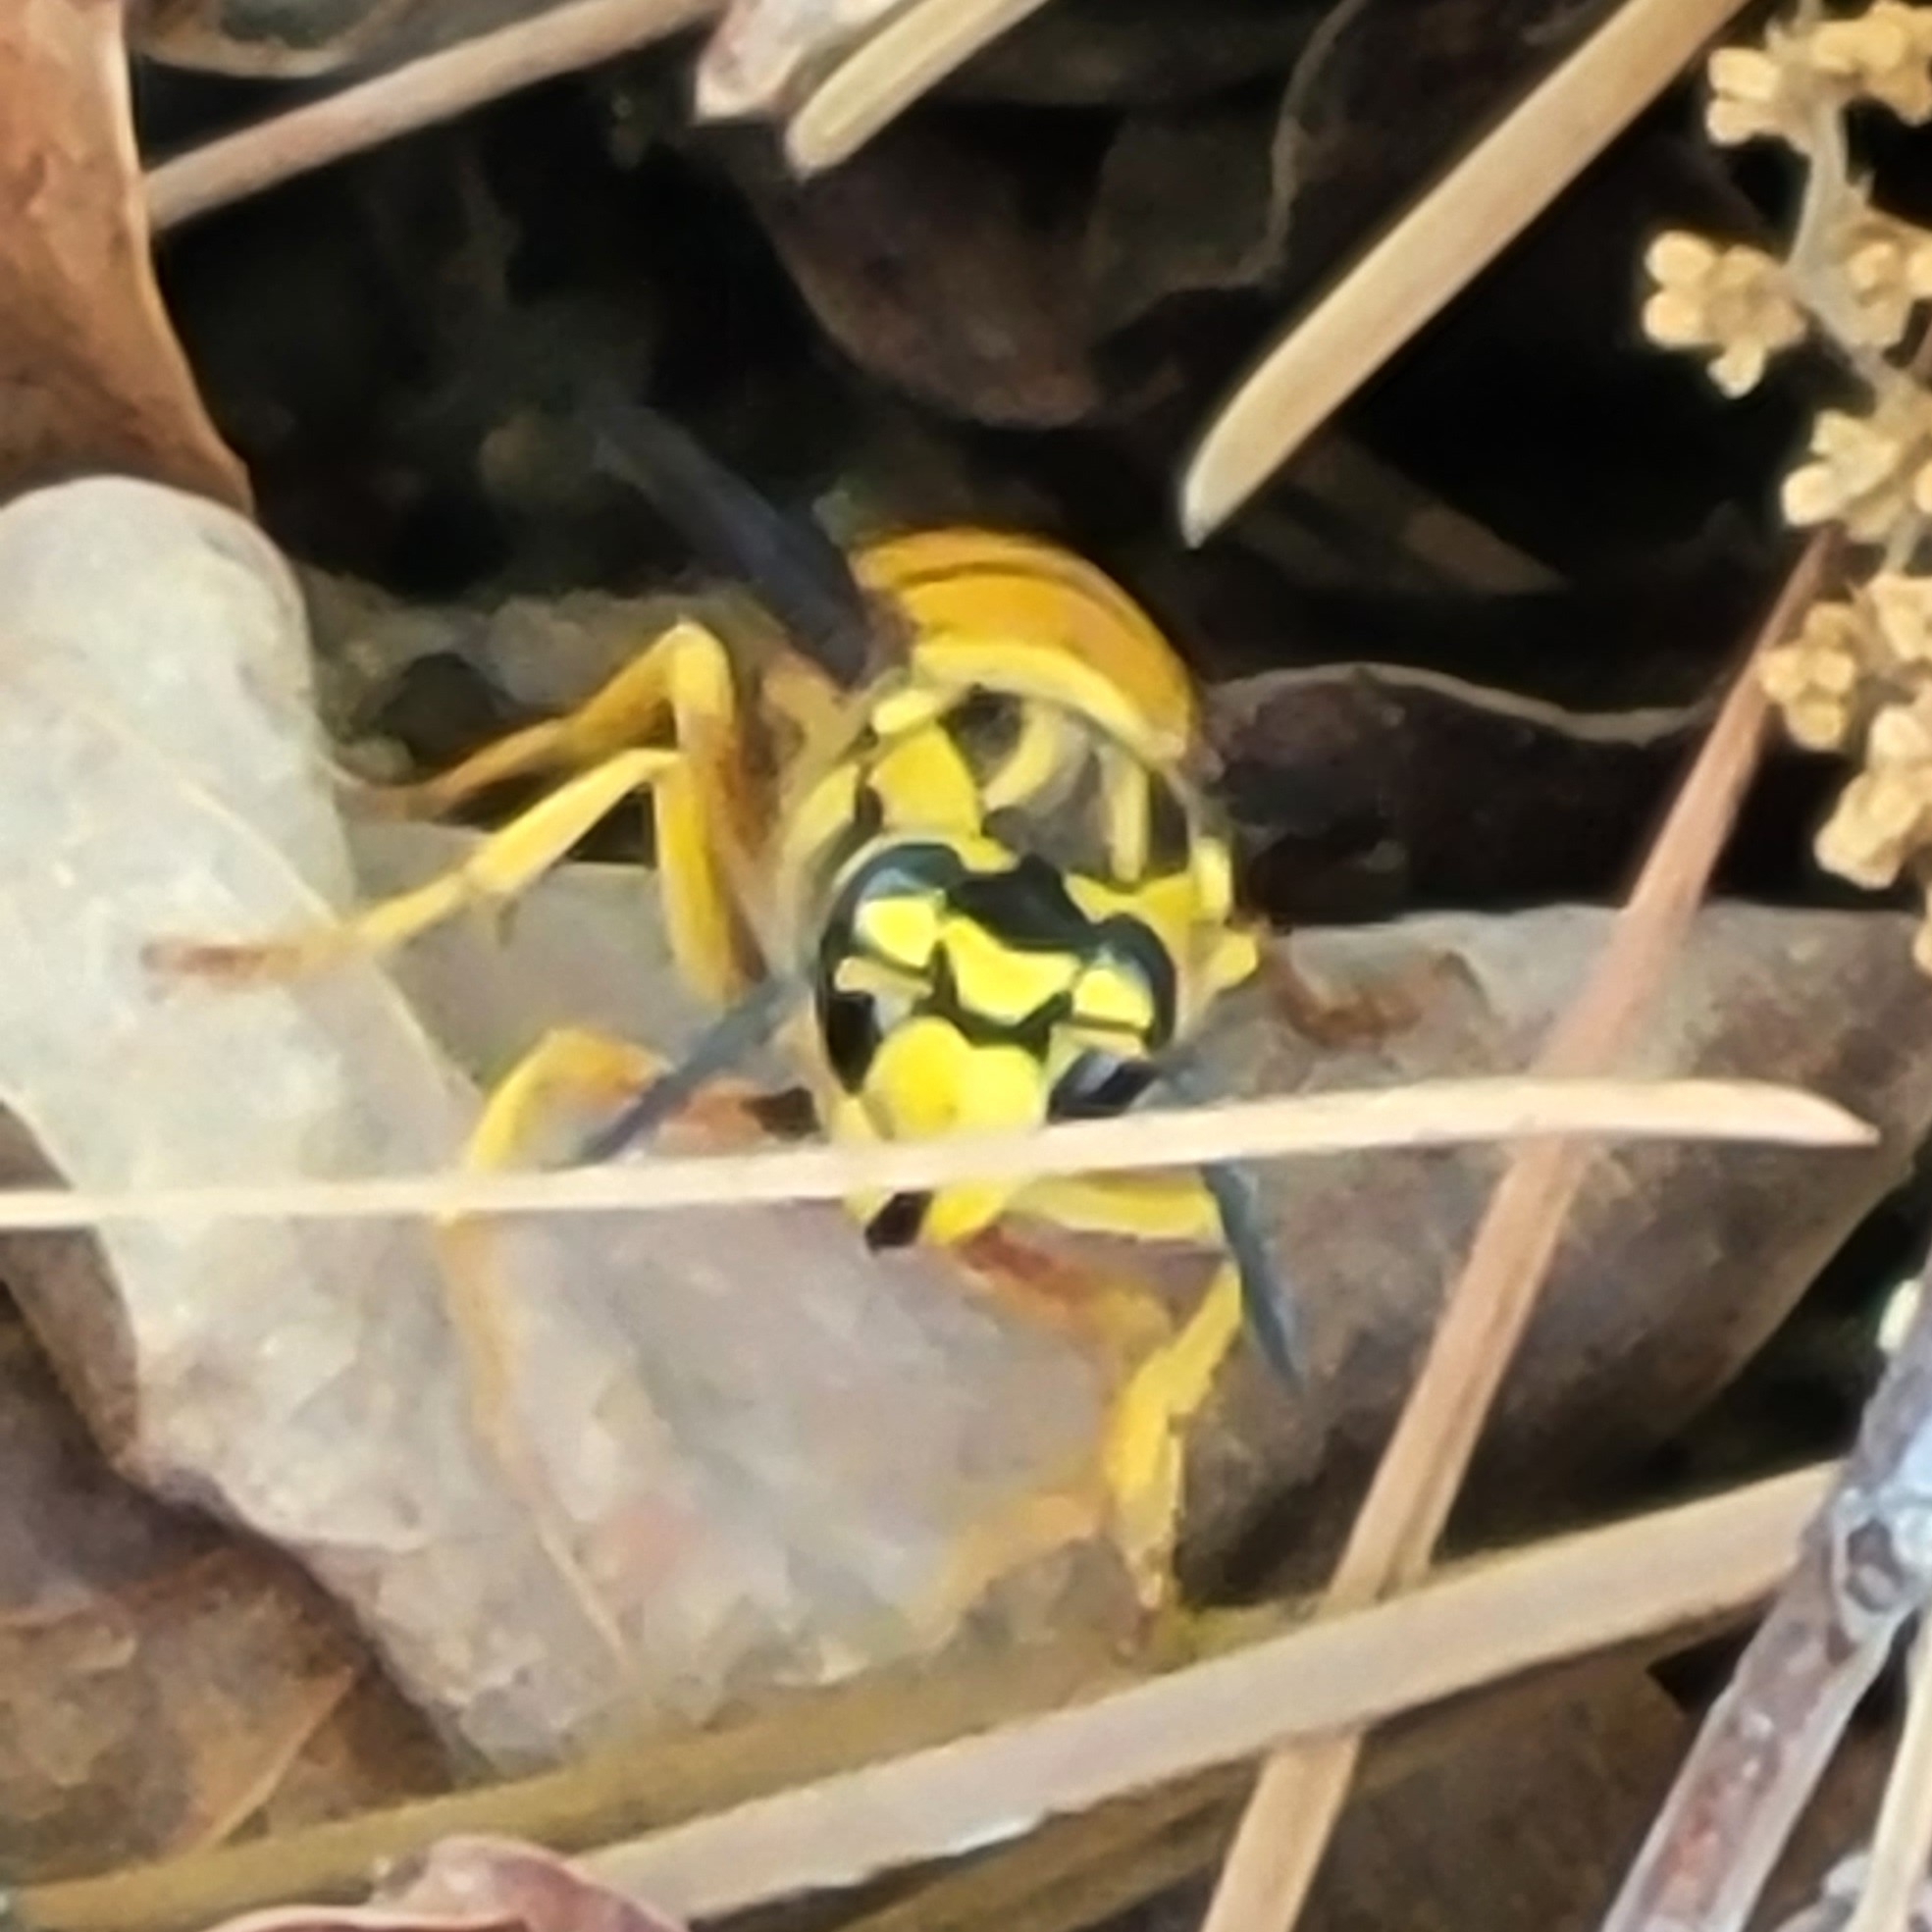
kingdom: Animalia
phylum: Arthropoda
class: Insecta
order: Hymenoptera
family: Vespidae
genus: Vespula
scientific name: Vespula squamosa
